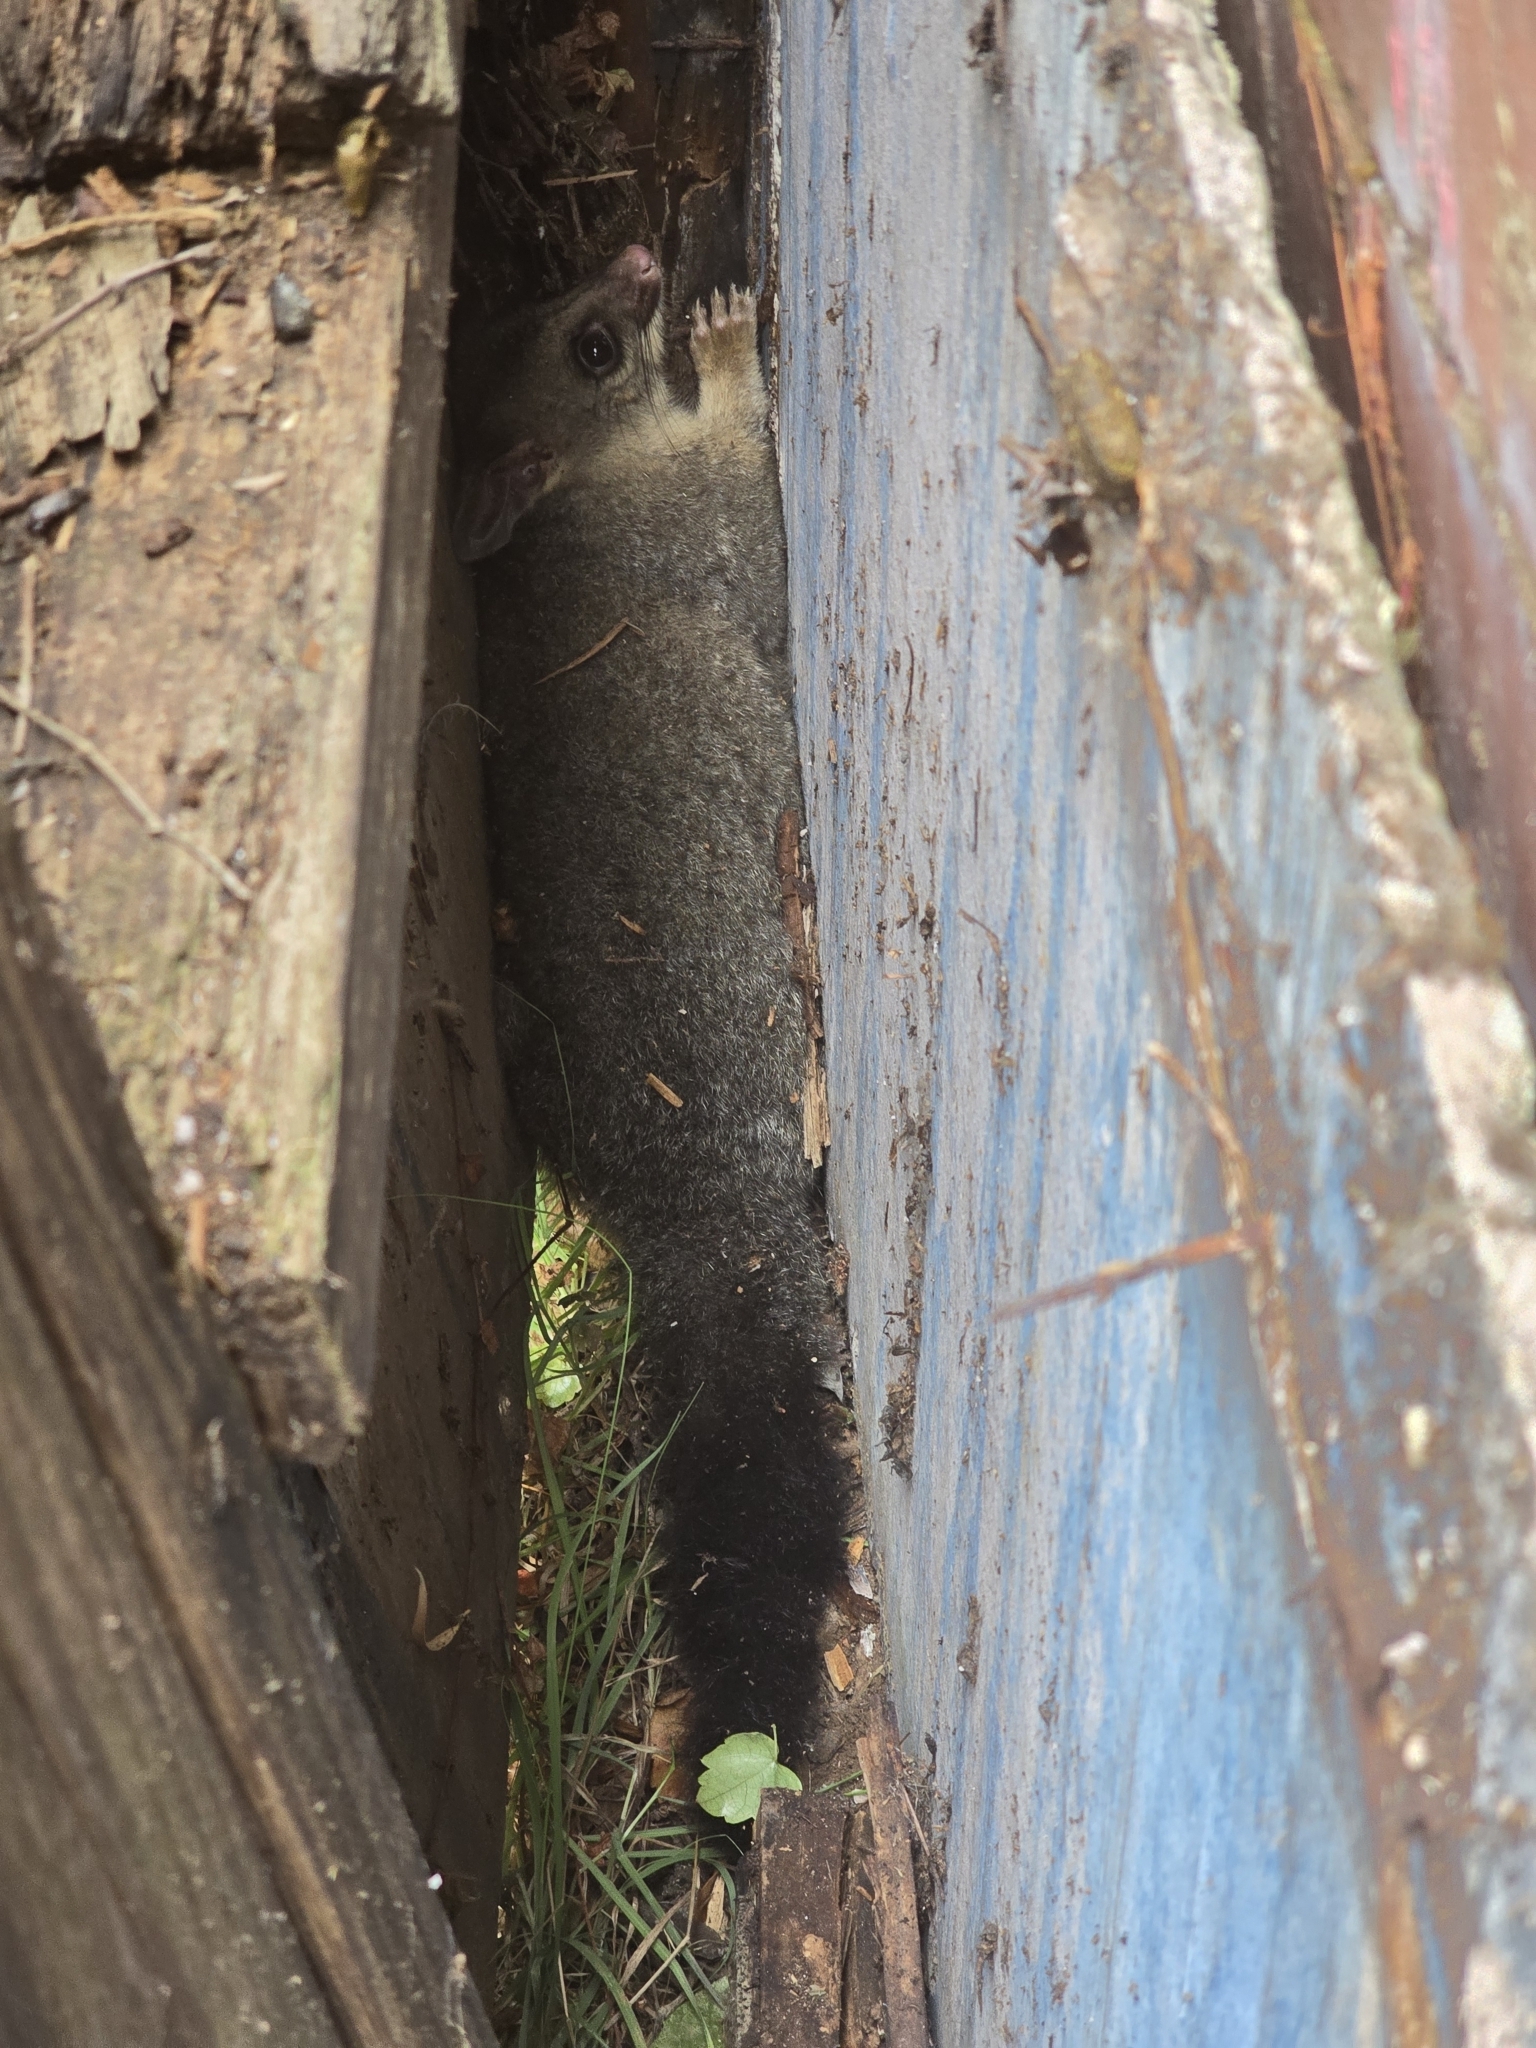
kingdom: Animalia
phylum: Chordata
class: Mammalia
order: Diprotodontia
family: Phalangeridae
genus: Trichosurus
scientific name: Trichosurus vulpecula
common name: Common brushtail
